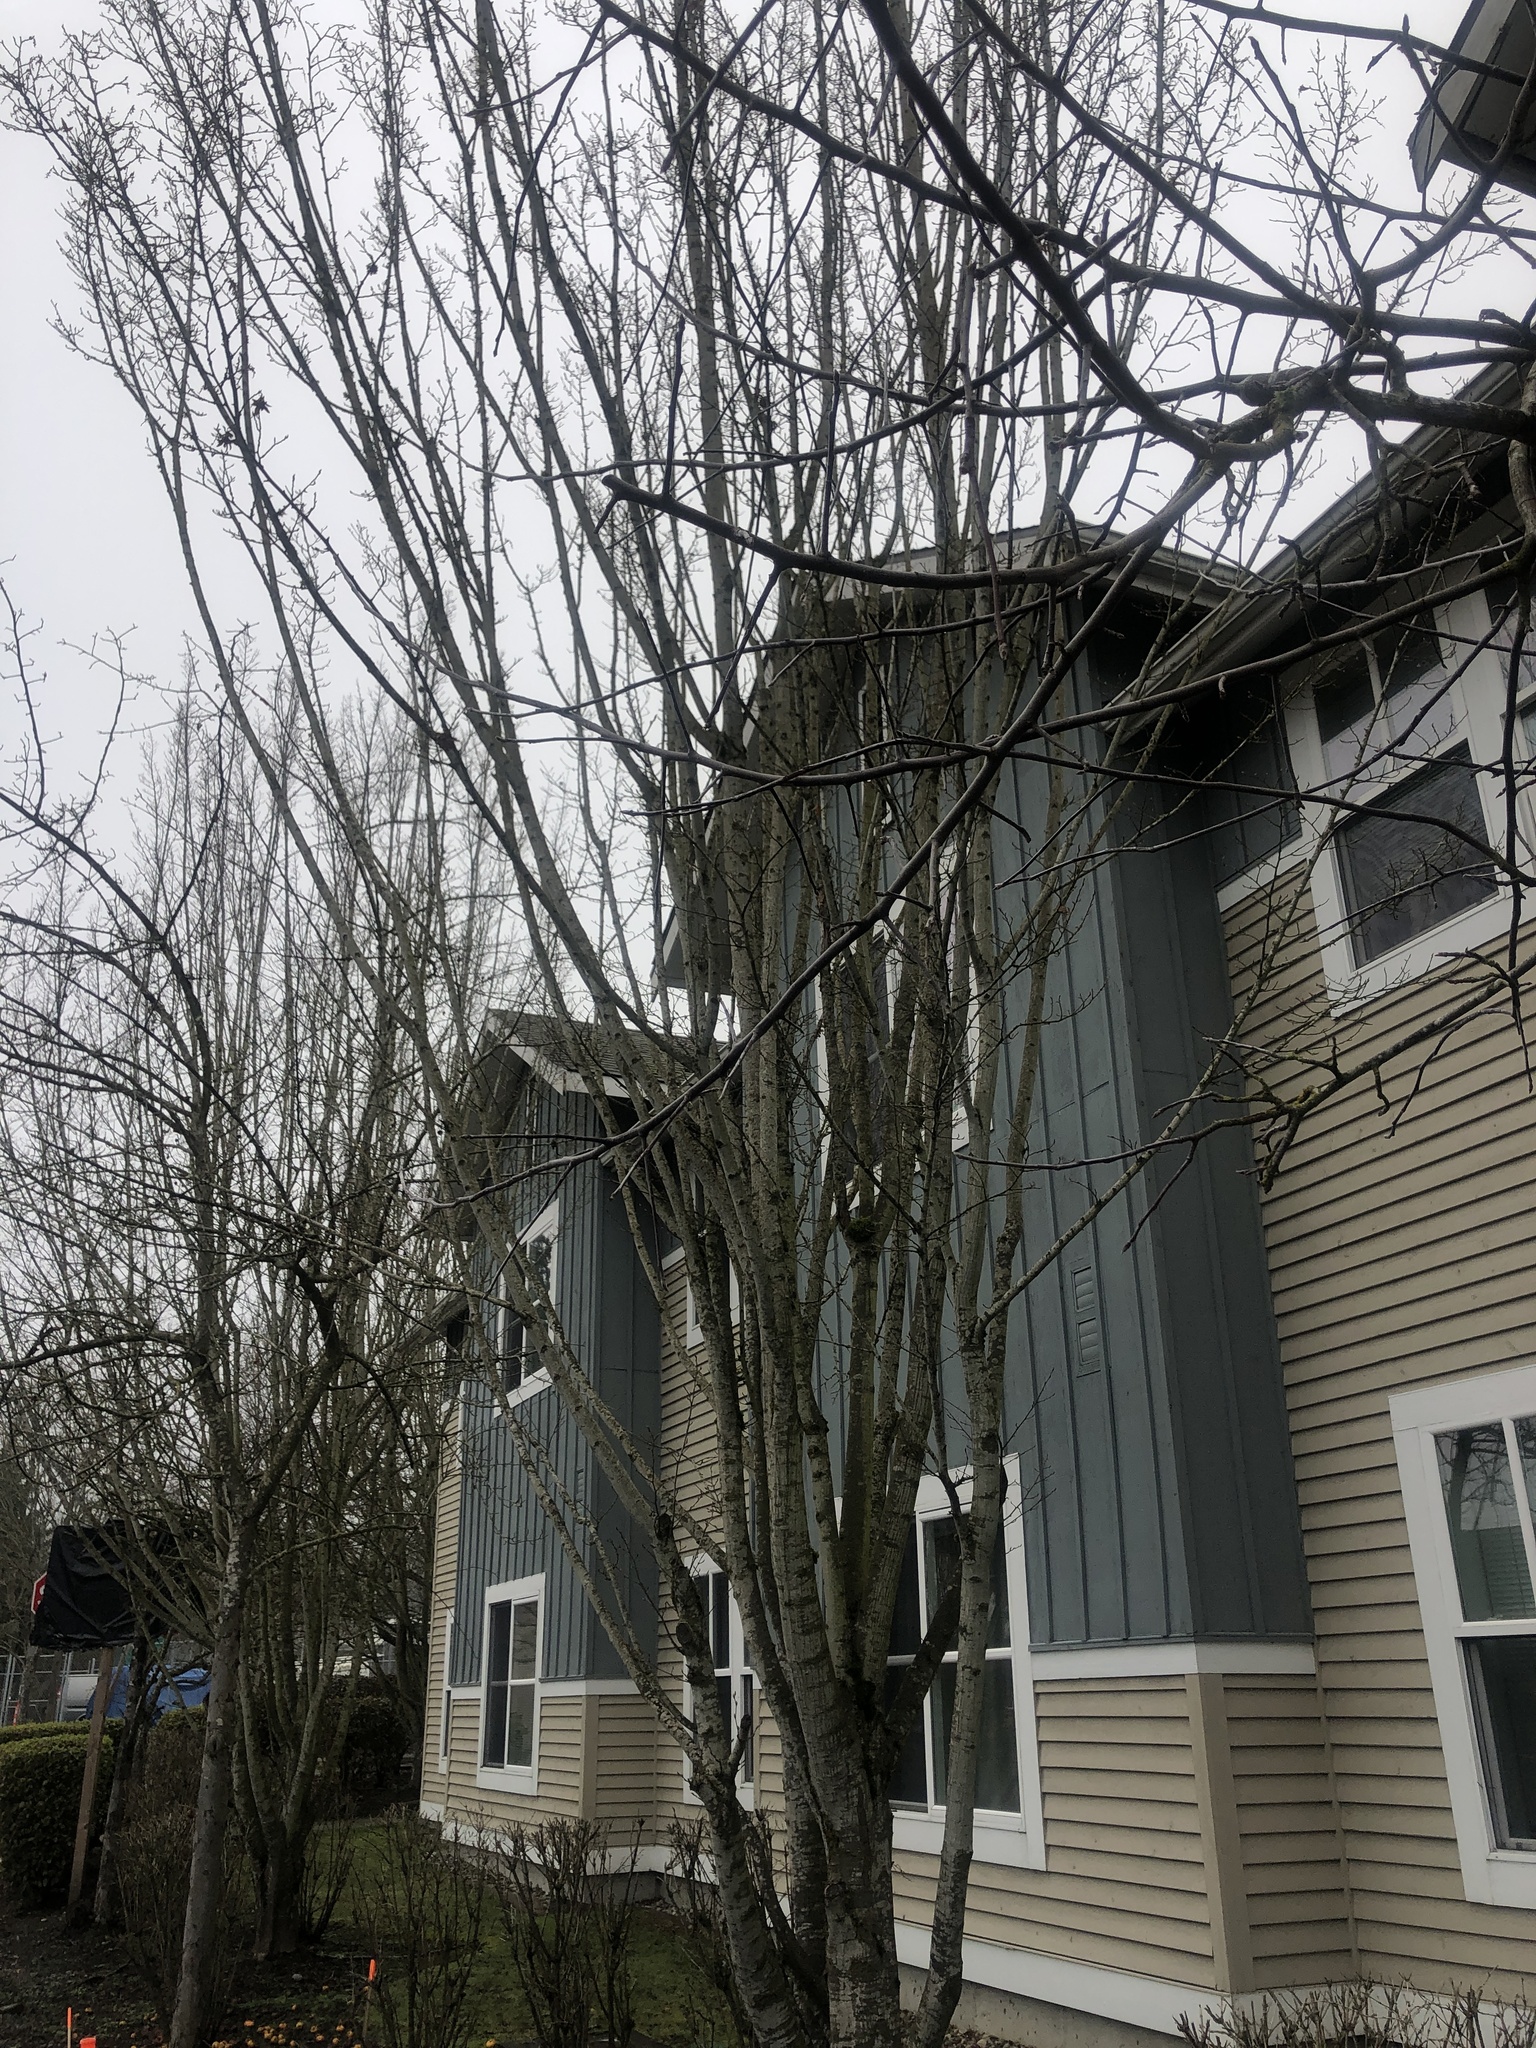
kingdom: Plantae
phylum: Tracheophyta
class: Magnoliopsida
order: Rosales
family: Rosaceae
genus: Malus
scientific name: Malus domestica
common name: Apple
